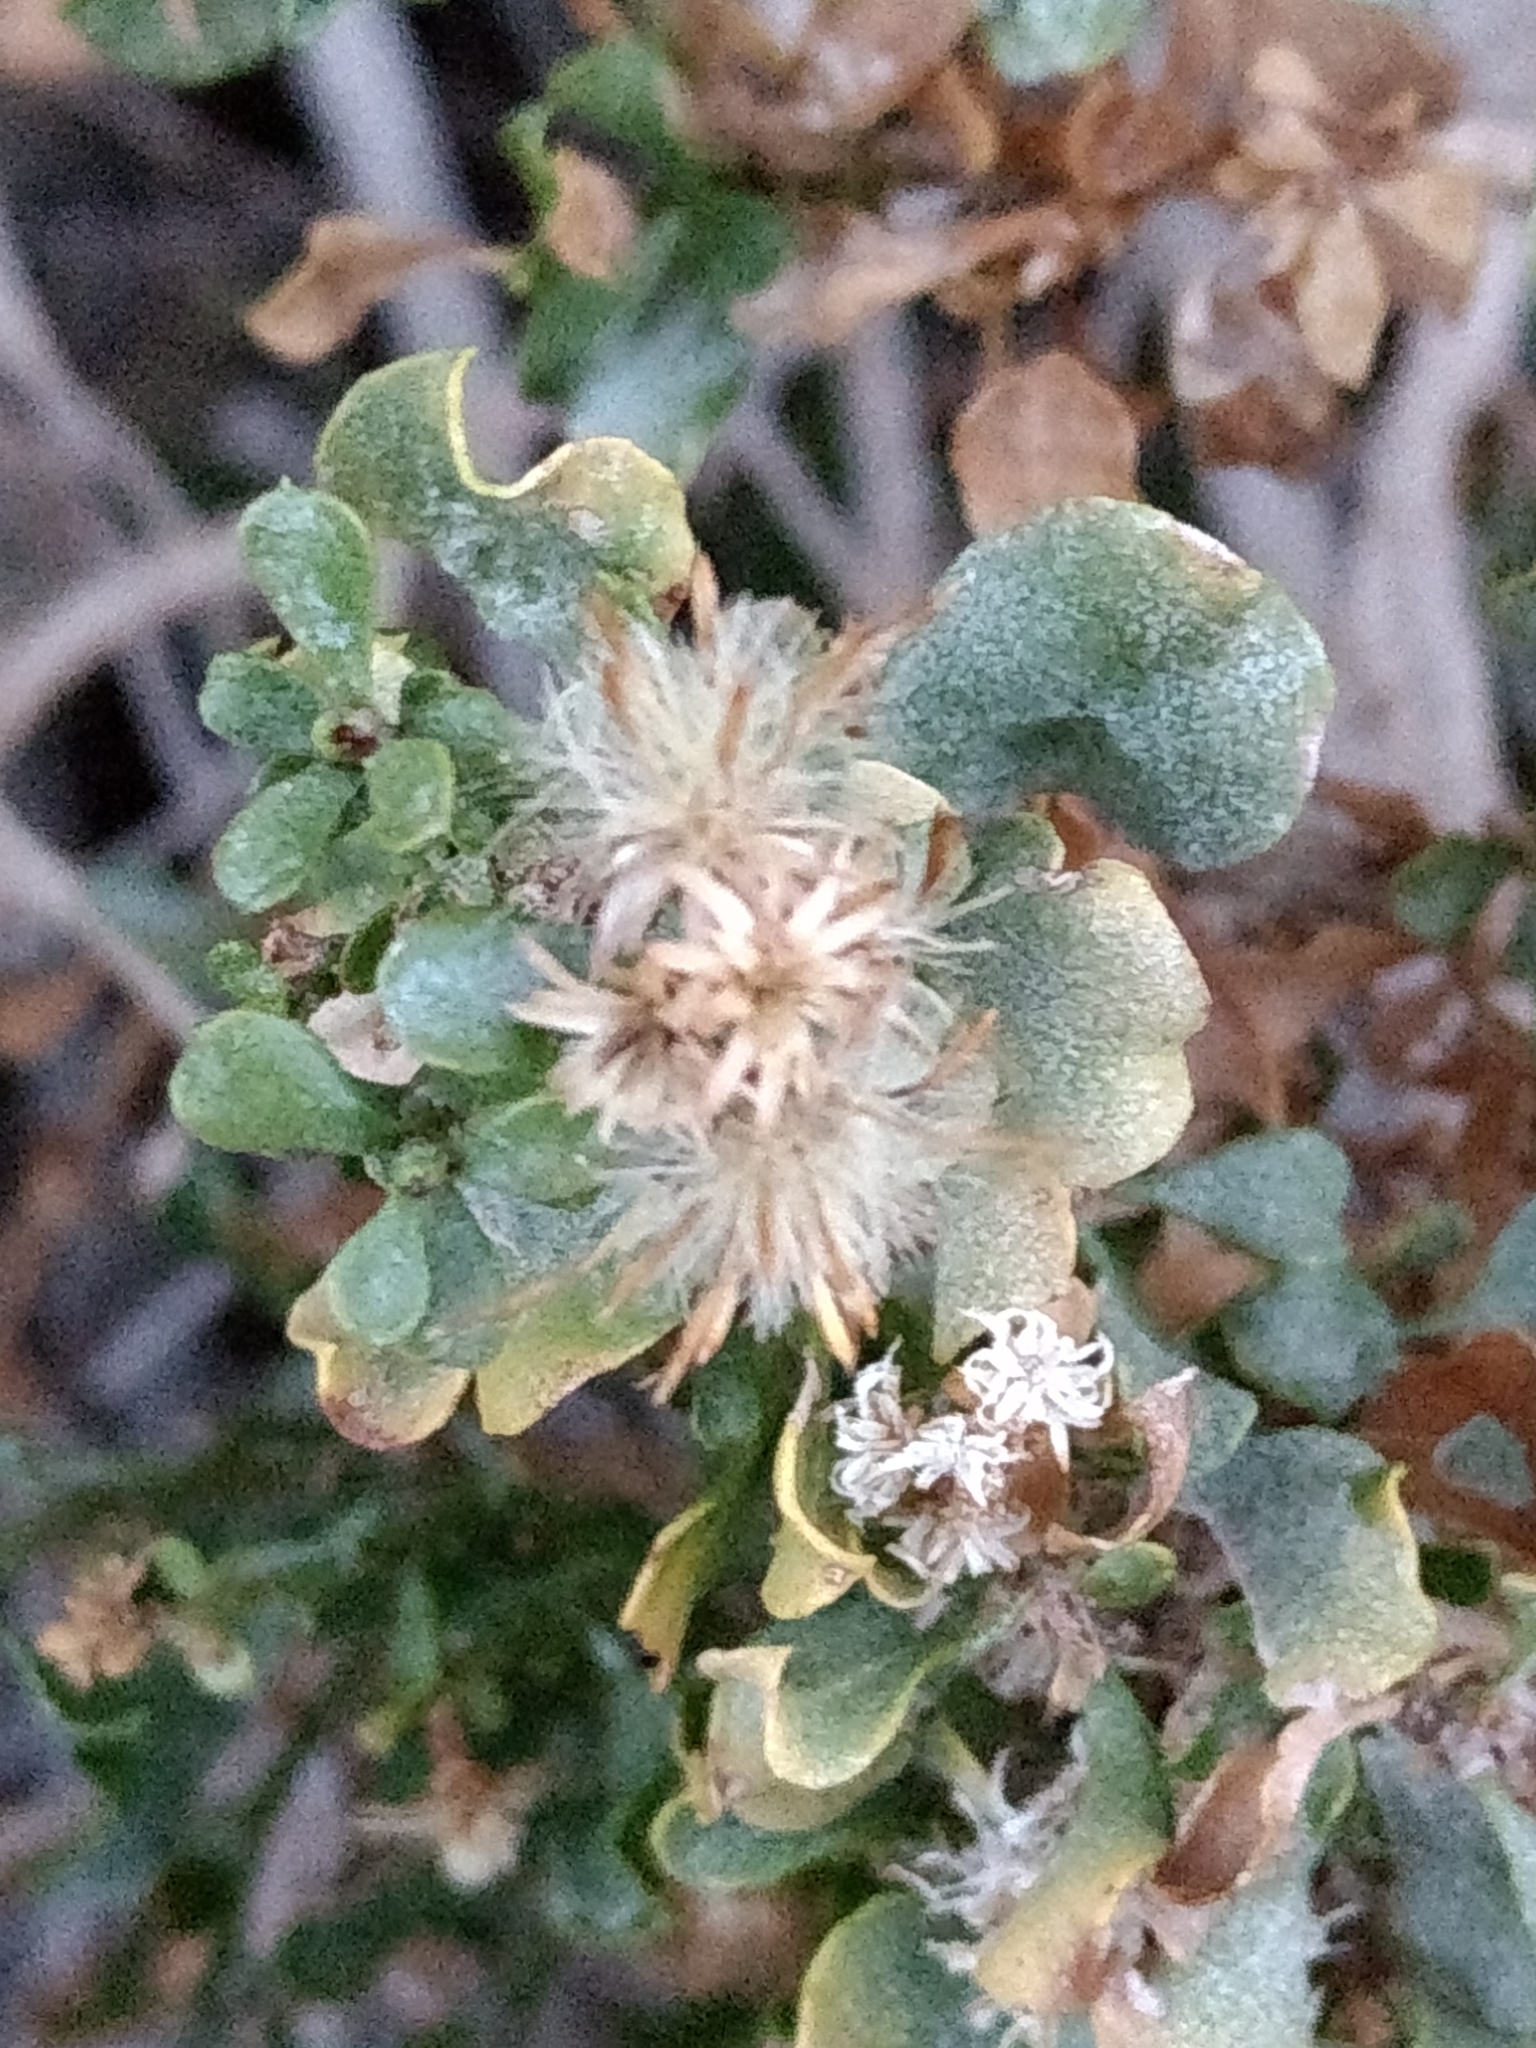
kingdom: Plantae
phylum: Tracheophyta
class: Magnoliopsida
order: Asterales
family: Asteraceae
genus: Ericameria
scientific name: Ericameria cuneata
